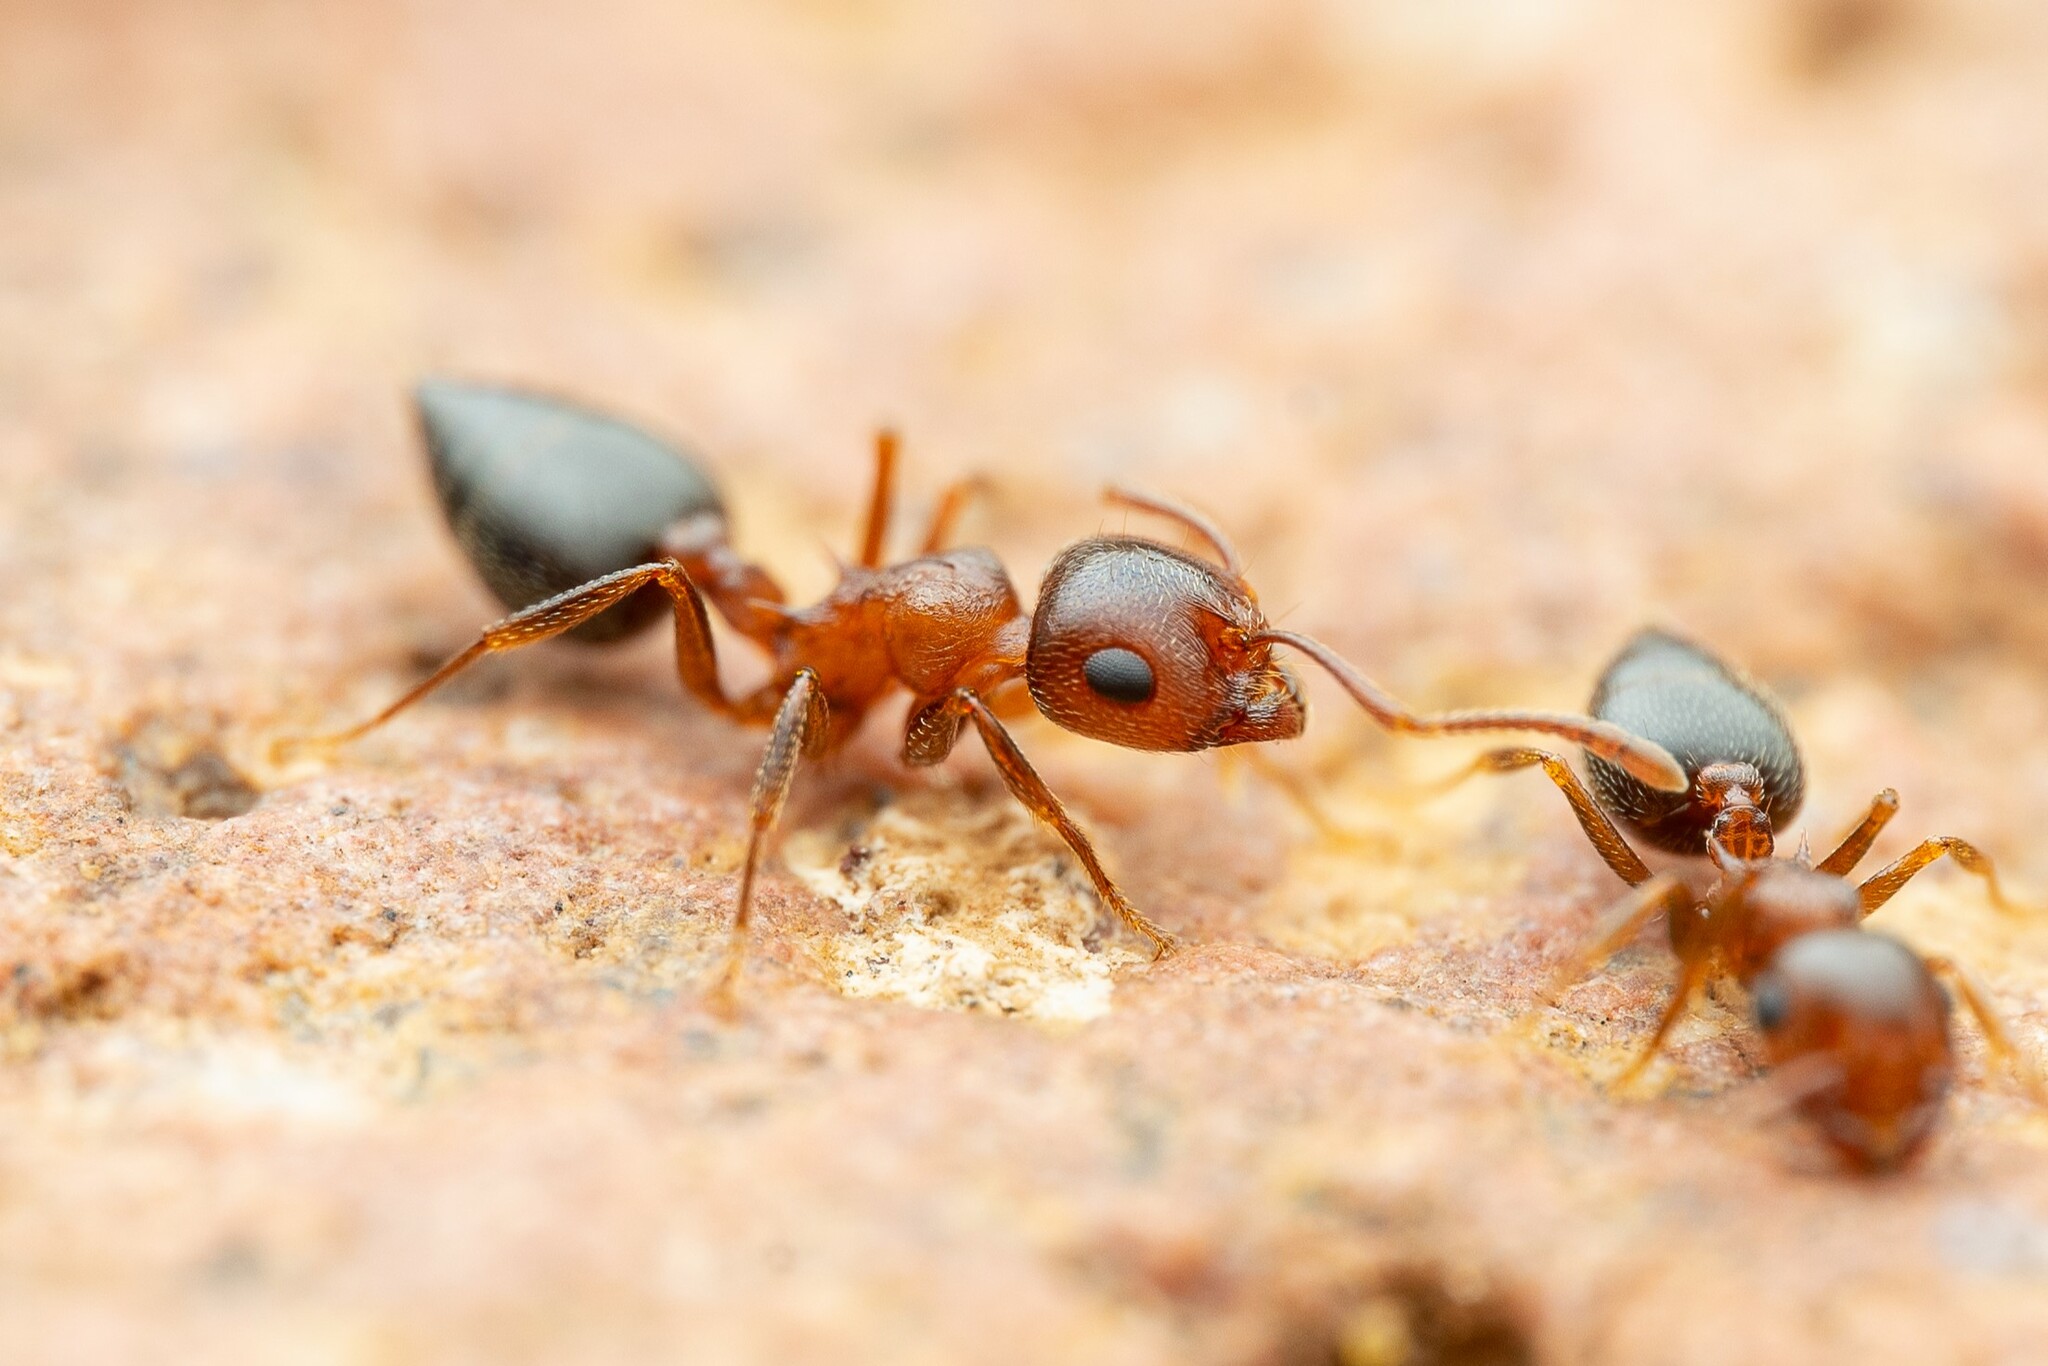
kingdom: Animalia
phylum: Arthropoda
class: Insecta
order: Hymenoptera
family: Formicidae
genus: Crematogaster
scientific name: Crematogaster opuntiae
